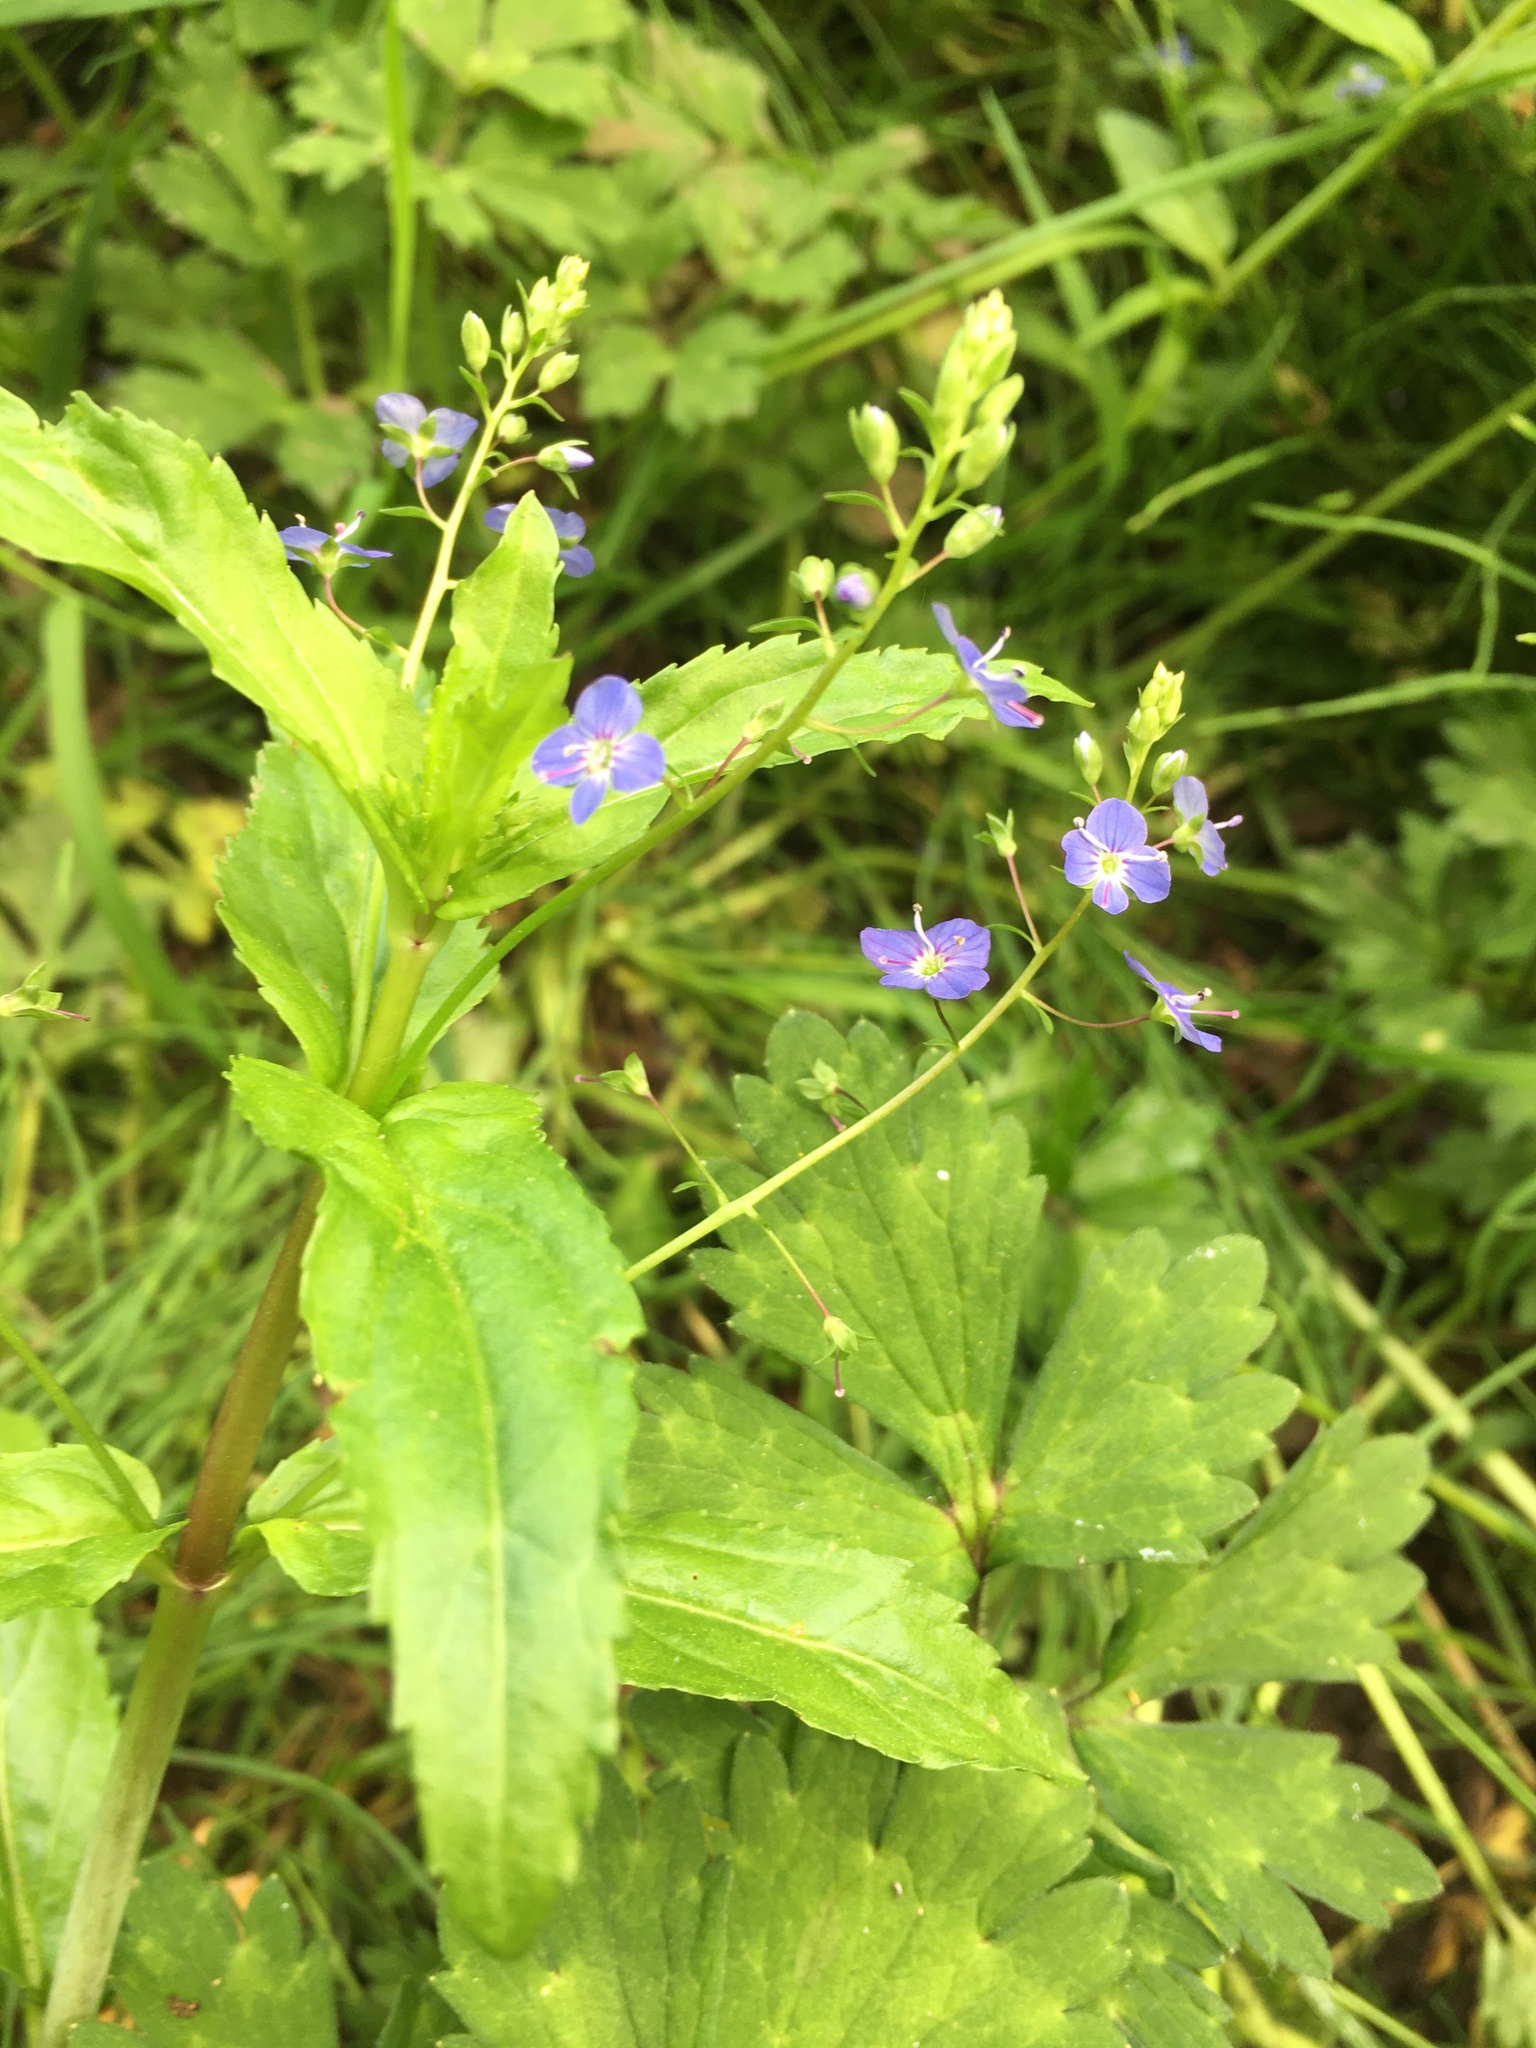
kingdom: Plantae
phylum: Tracheophyta
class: Magnoliopsida
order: Lamiales
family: Plantaginaceae
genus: Veronica
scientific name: Veronica americana
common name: American brooklime
